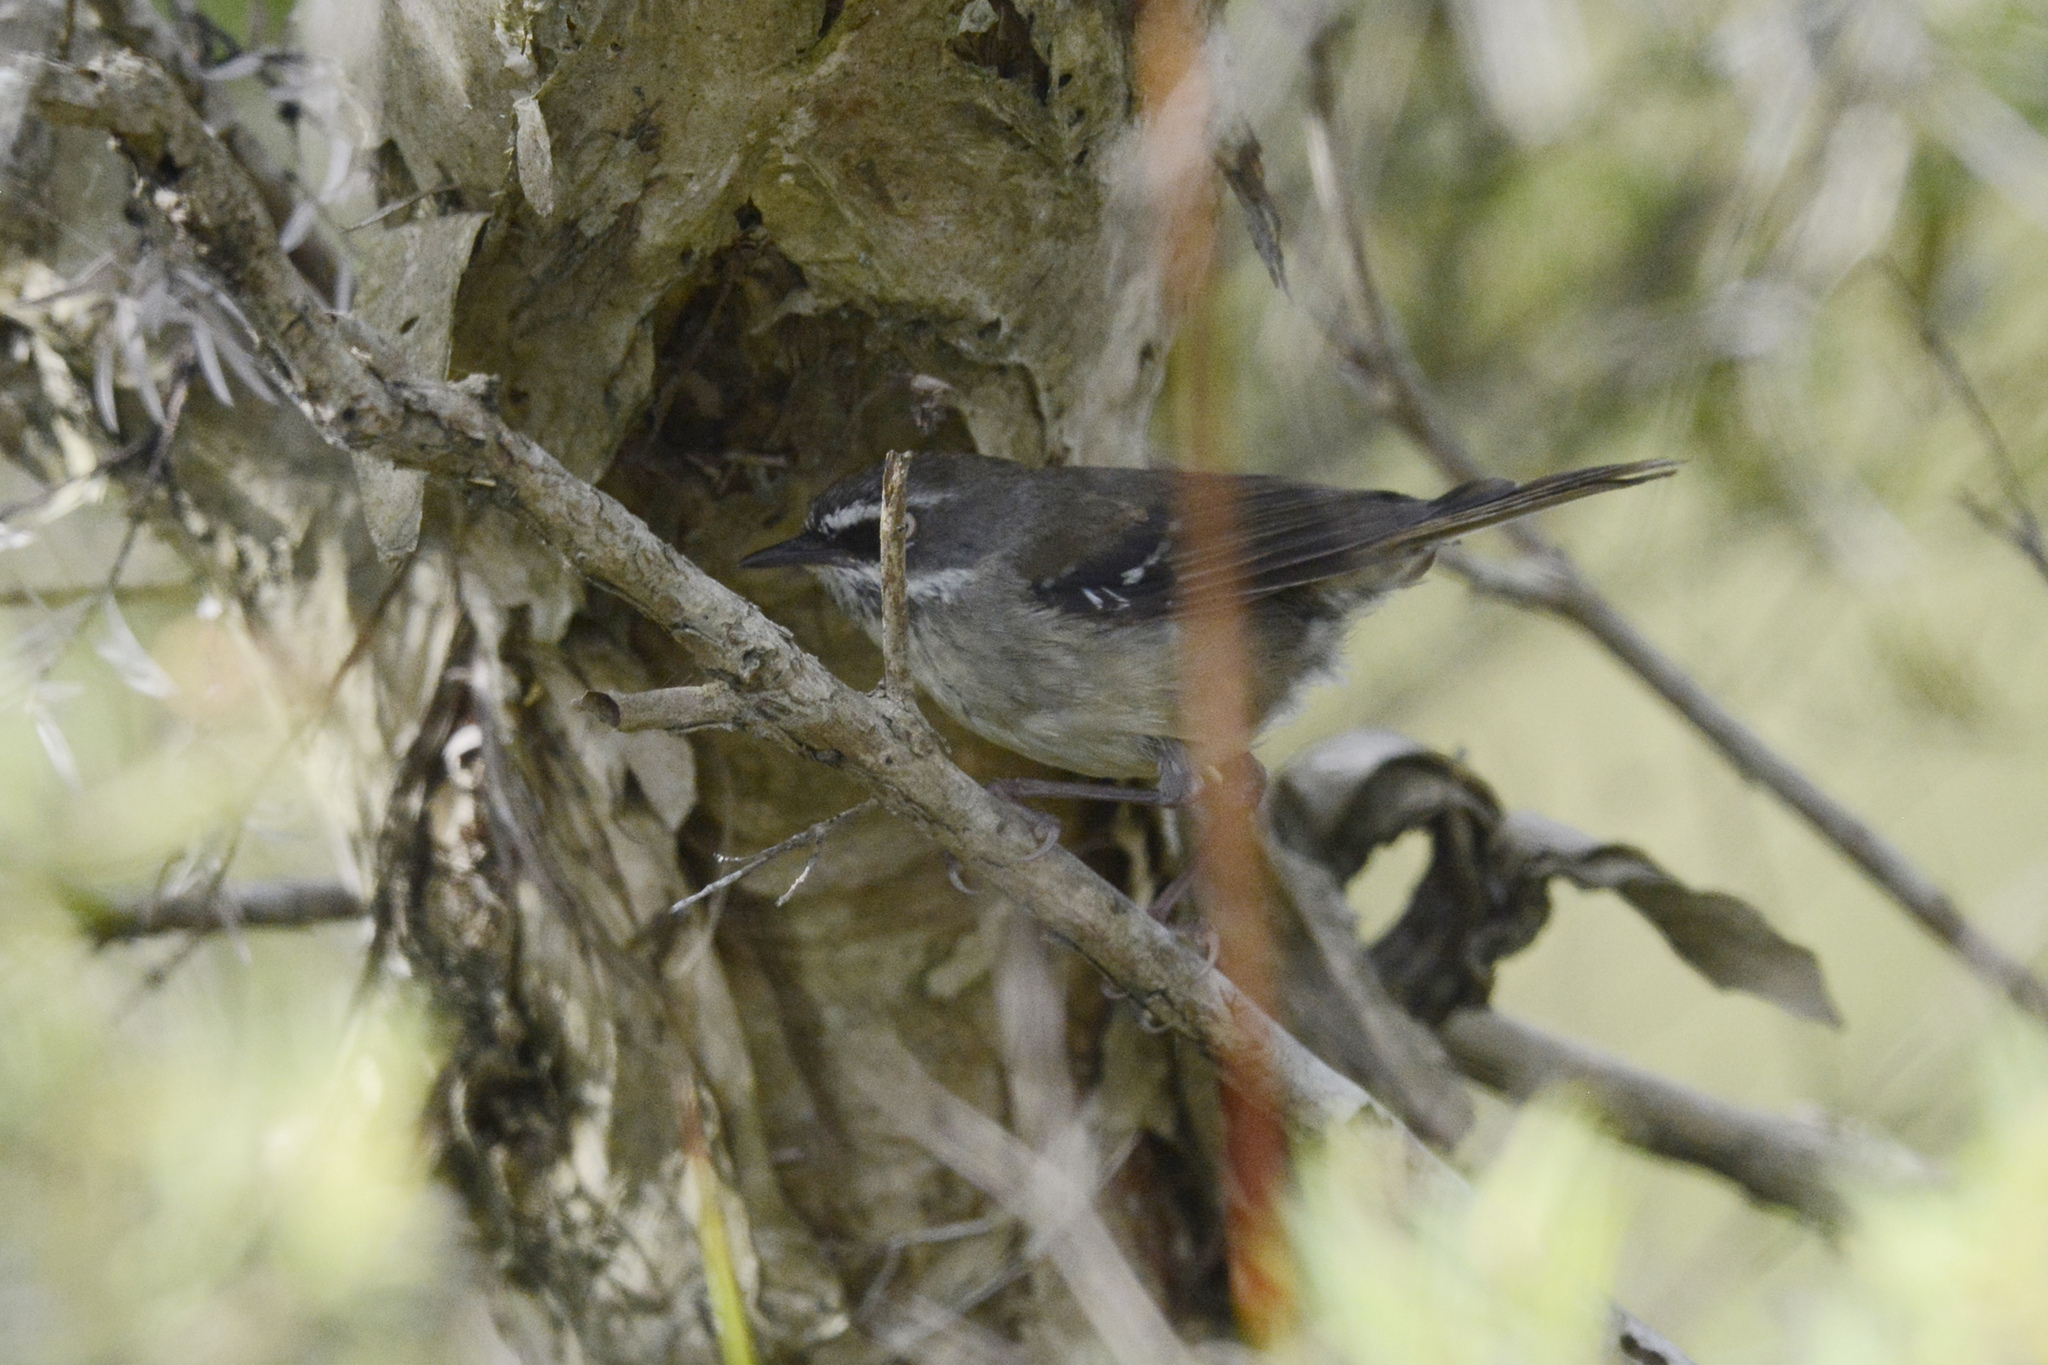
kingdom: Animalia
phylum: Chordata
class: Aves
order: Passeriformes
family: Acanthizidae
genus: Sericornis
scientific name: Sericornis frontalis
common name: White-browed scrubwren
